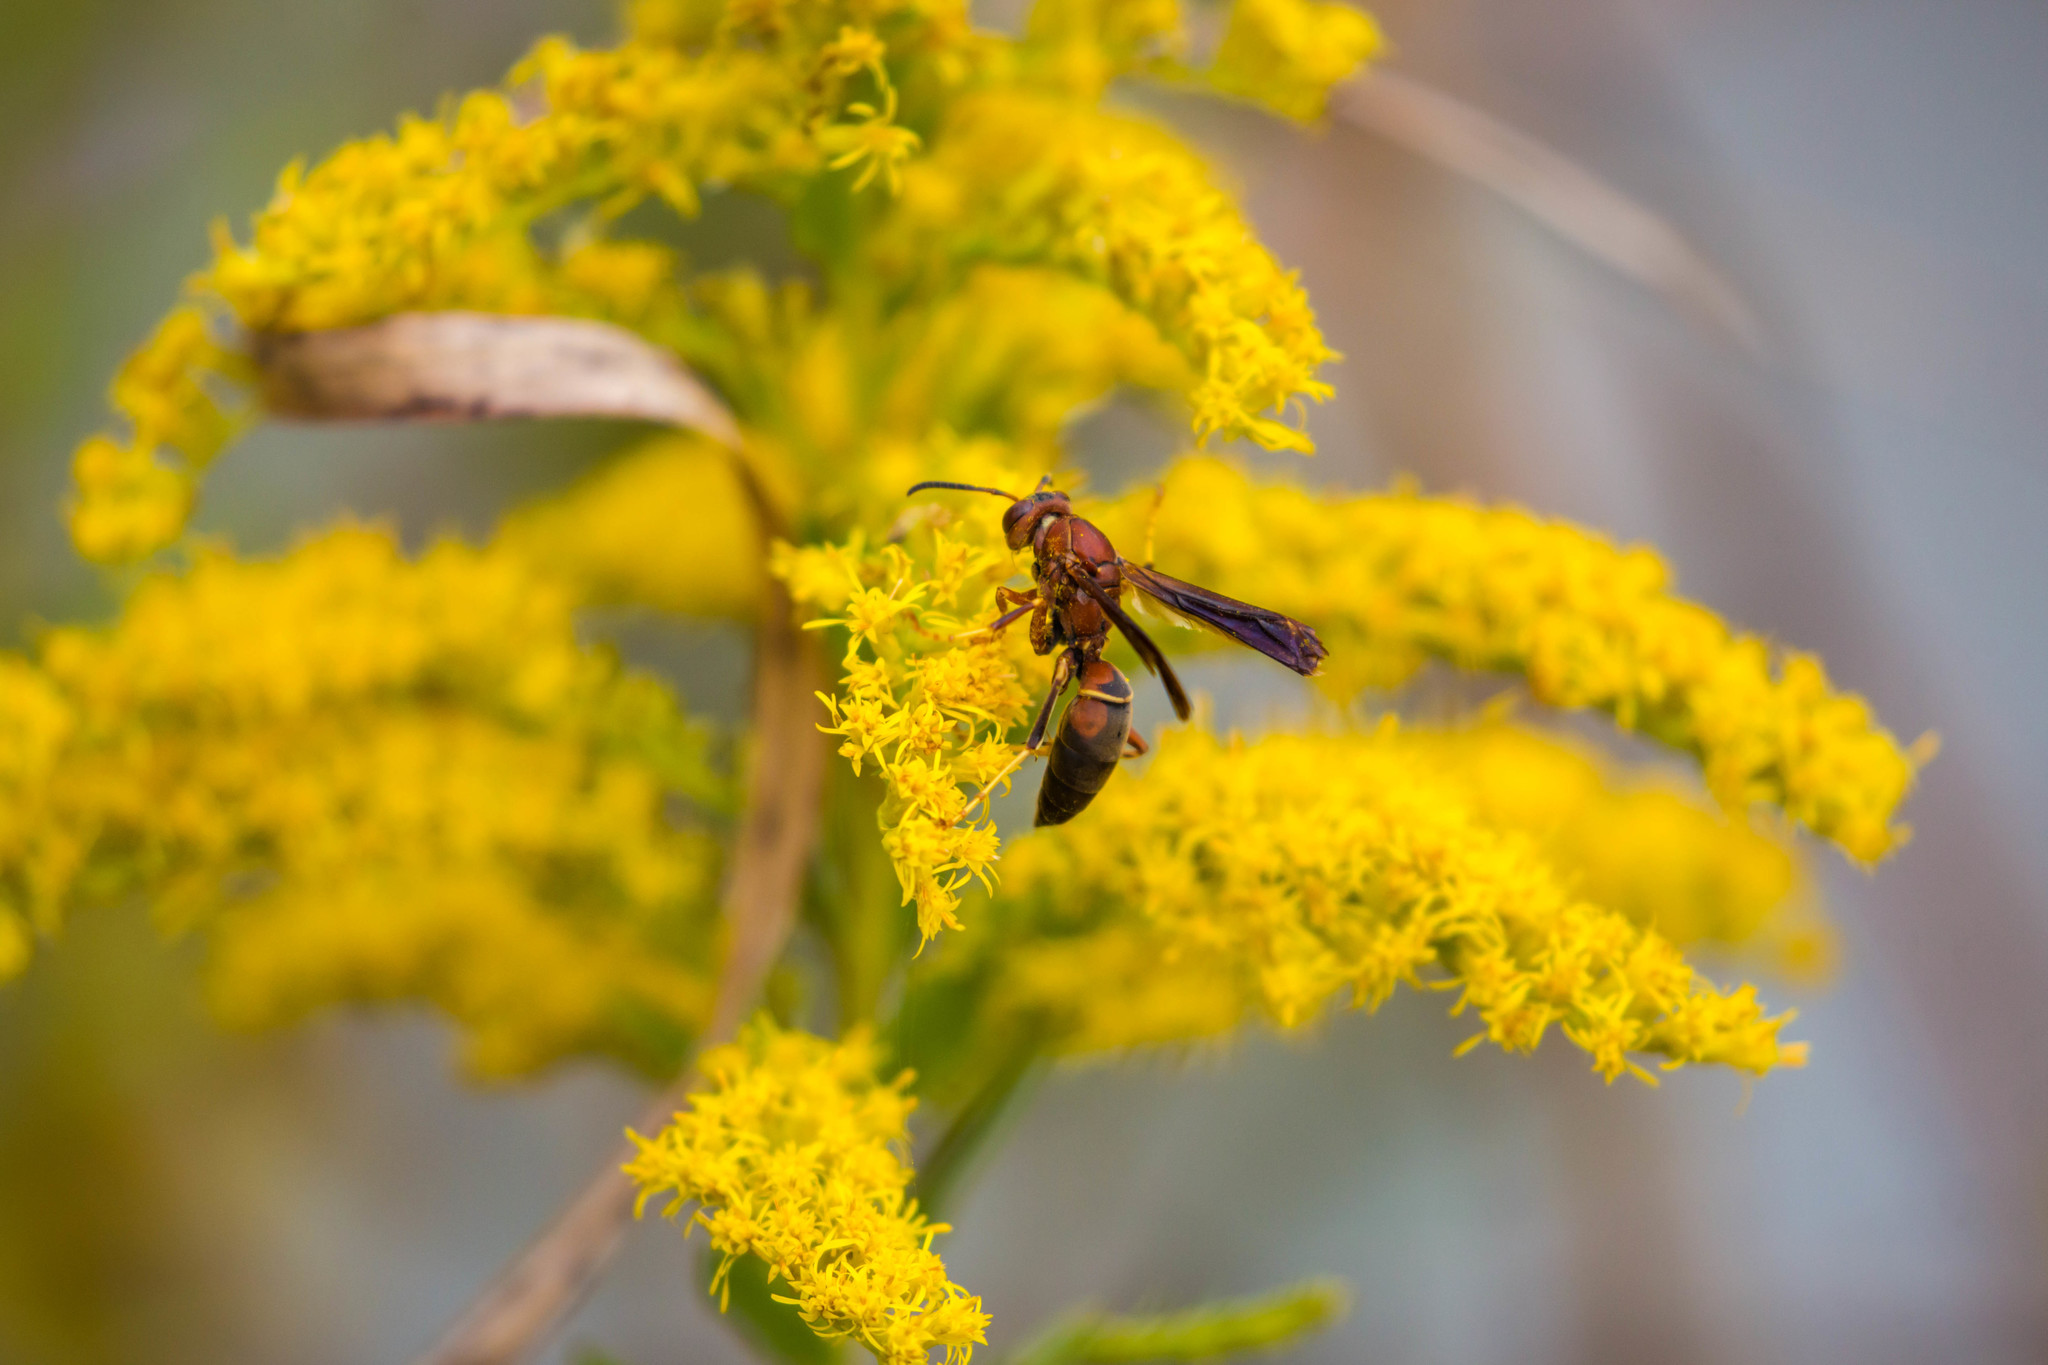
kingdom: Animalia
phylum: Arthropoda
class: Insecta
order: Hymenoptera
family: Eumenidae
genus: Polistes
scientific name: Polistes metricus
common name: Metric paper wasp
